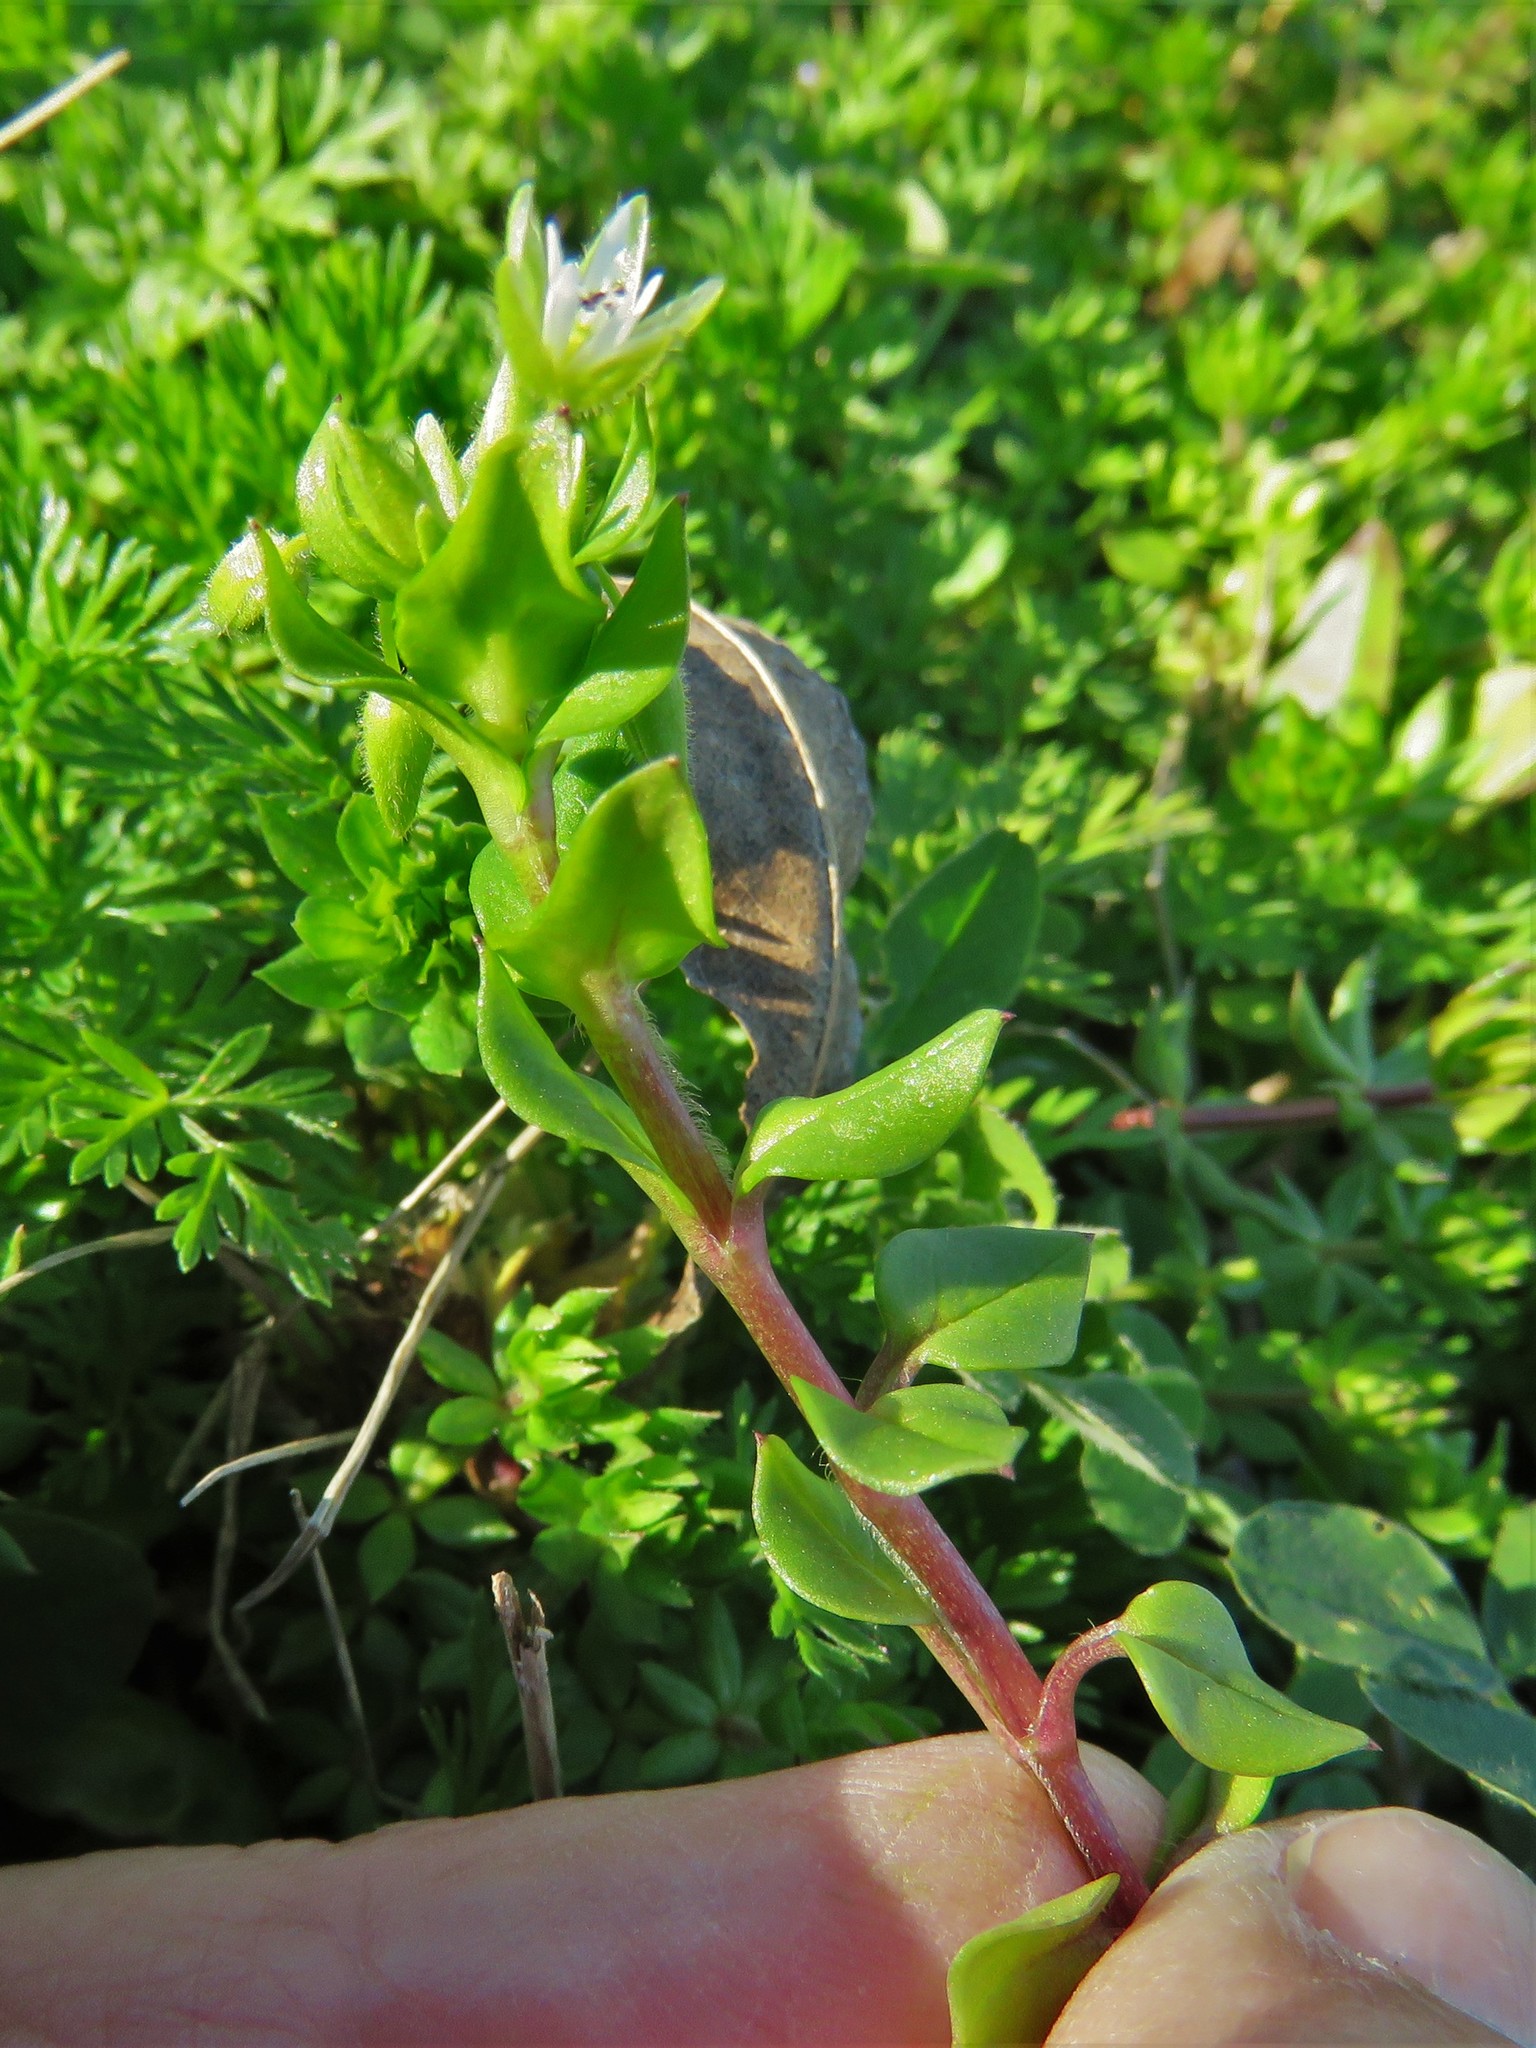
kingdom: Plantae
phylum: Tracheophyta
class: Magnoliopsida
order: Caryophyllales
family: Caryophyllaceae
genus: Stellaria
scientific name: Stellaria media
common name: Common chickweed
